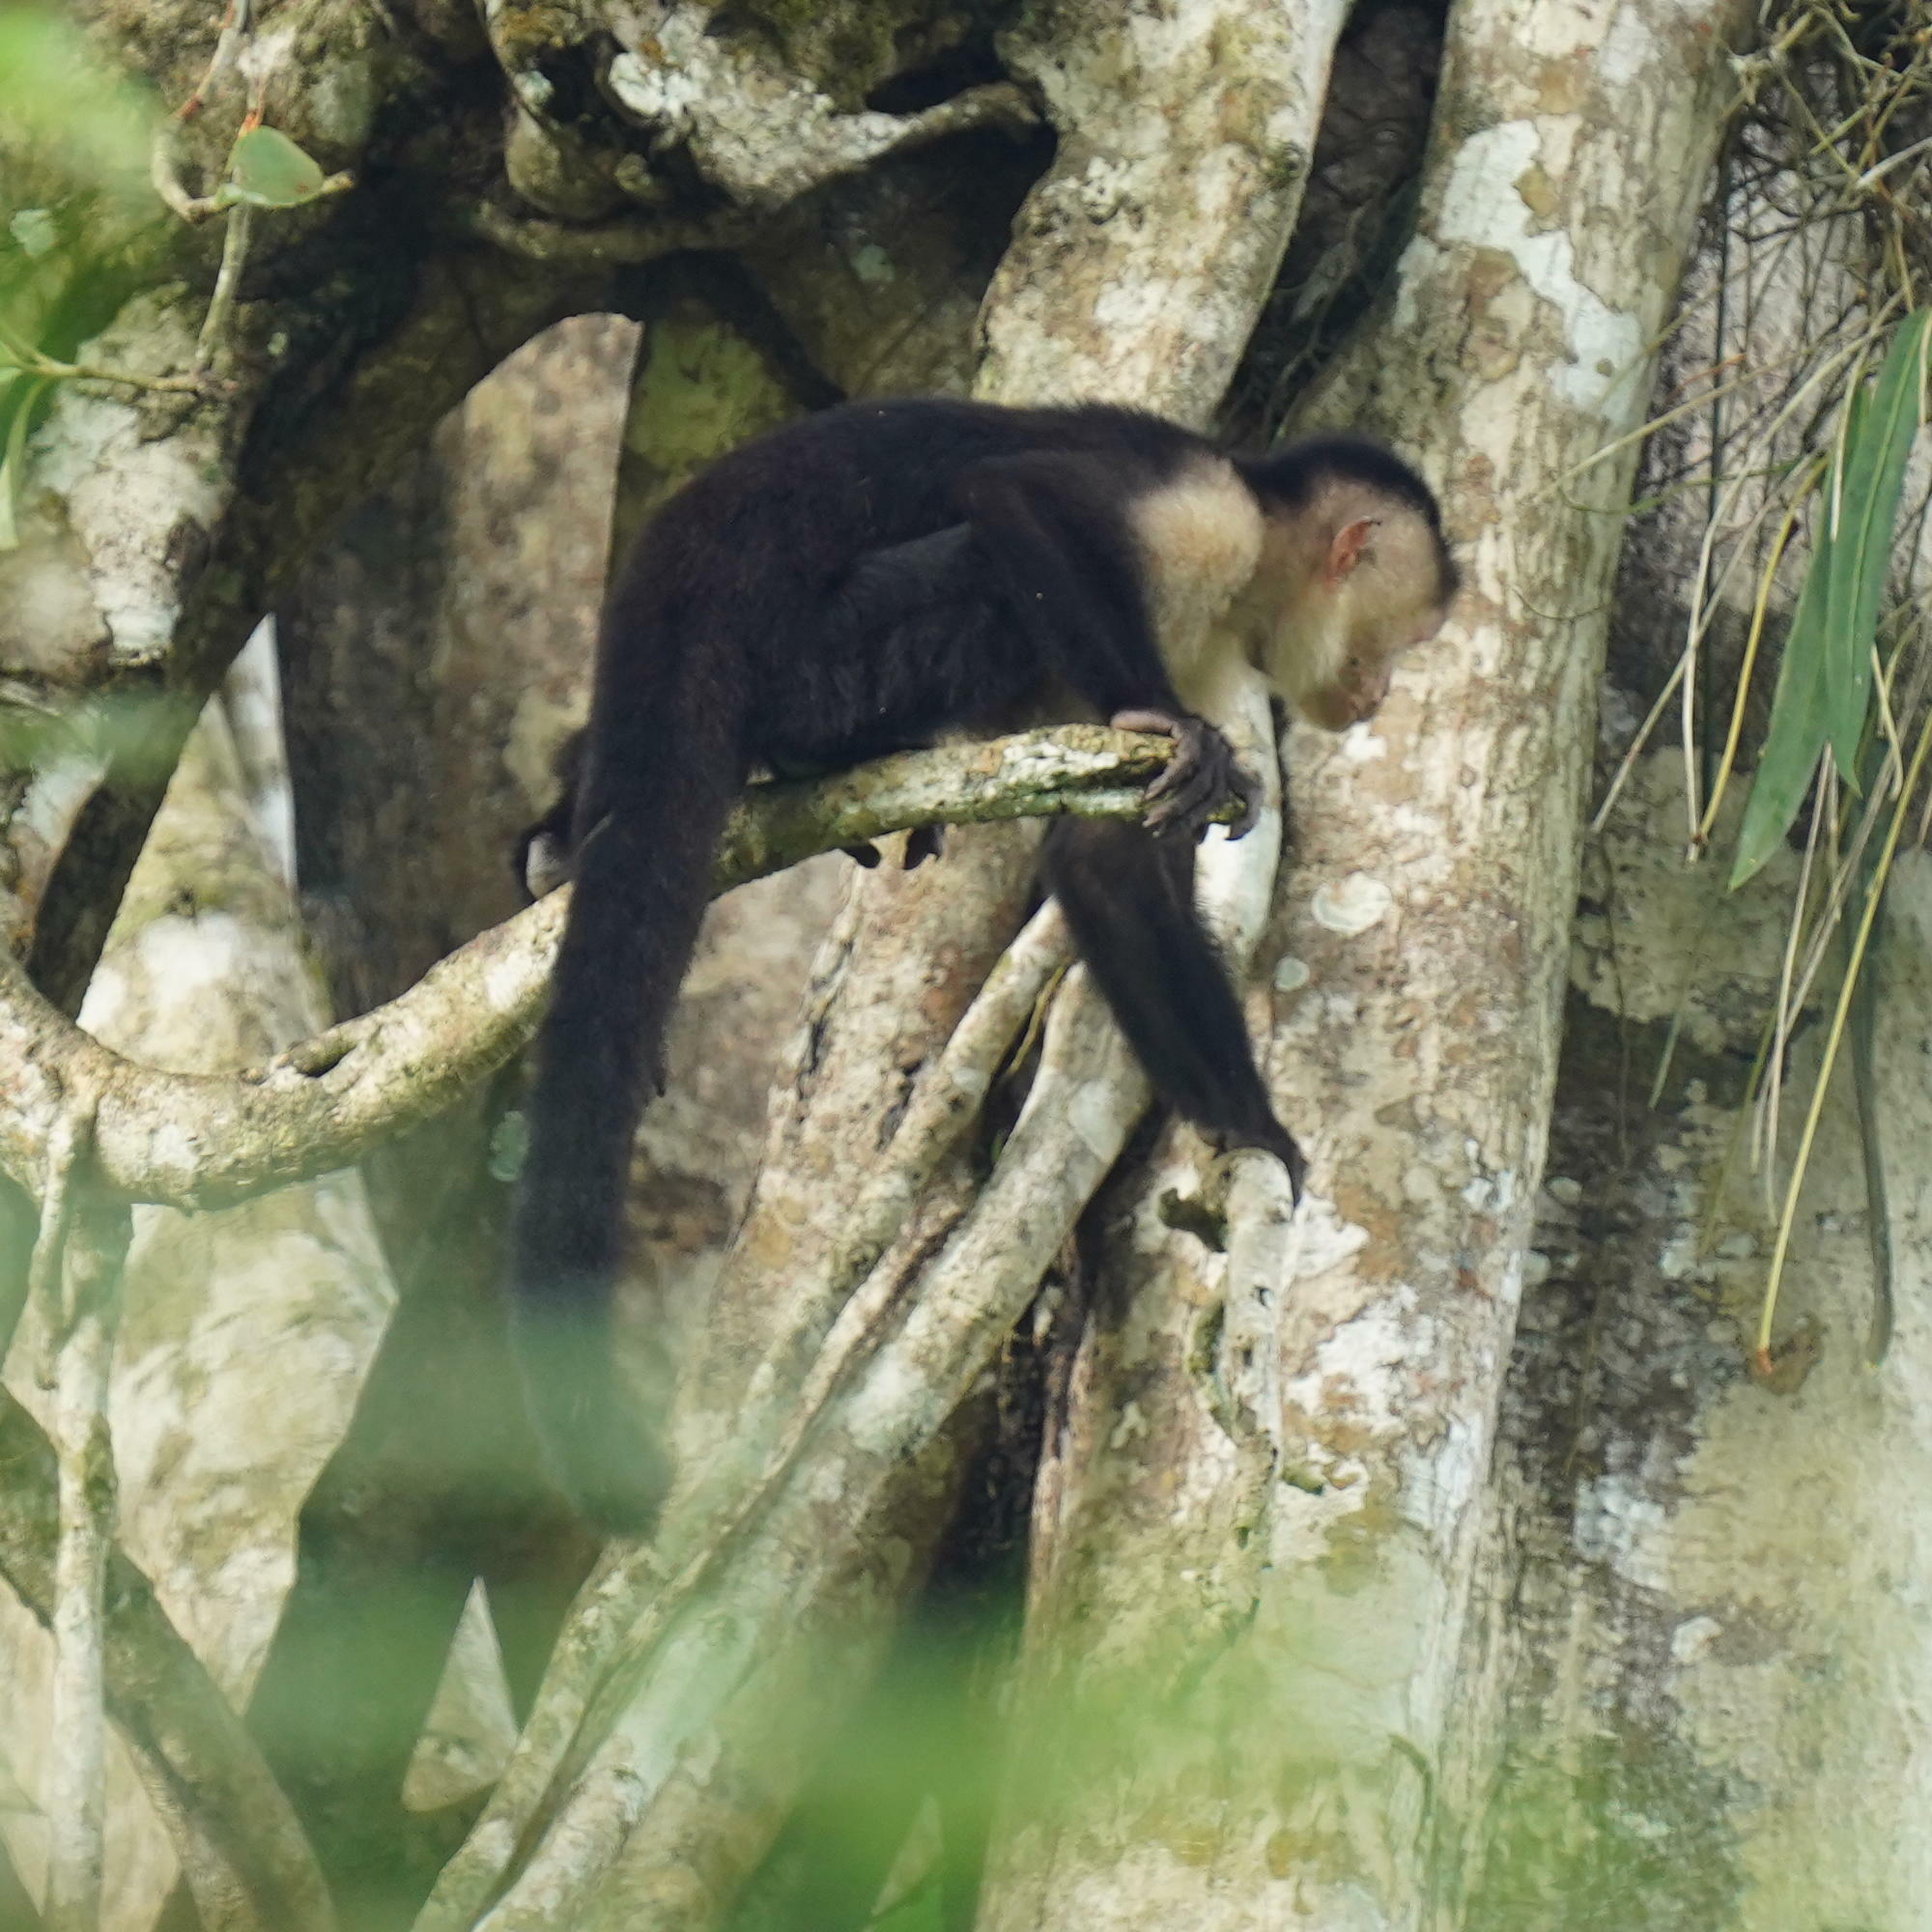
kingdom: Animalia
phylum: Chordata
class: Mammalia
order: Primates
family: Cebidae
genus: Cebus
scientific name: Cebus imitator
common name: Panamanian white-faced capuchin
